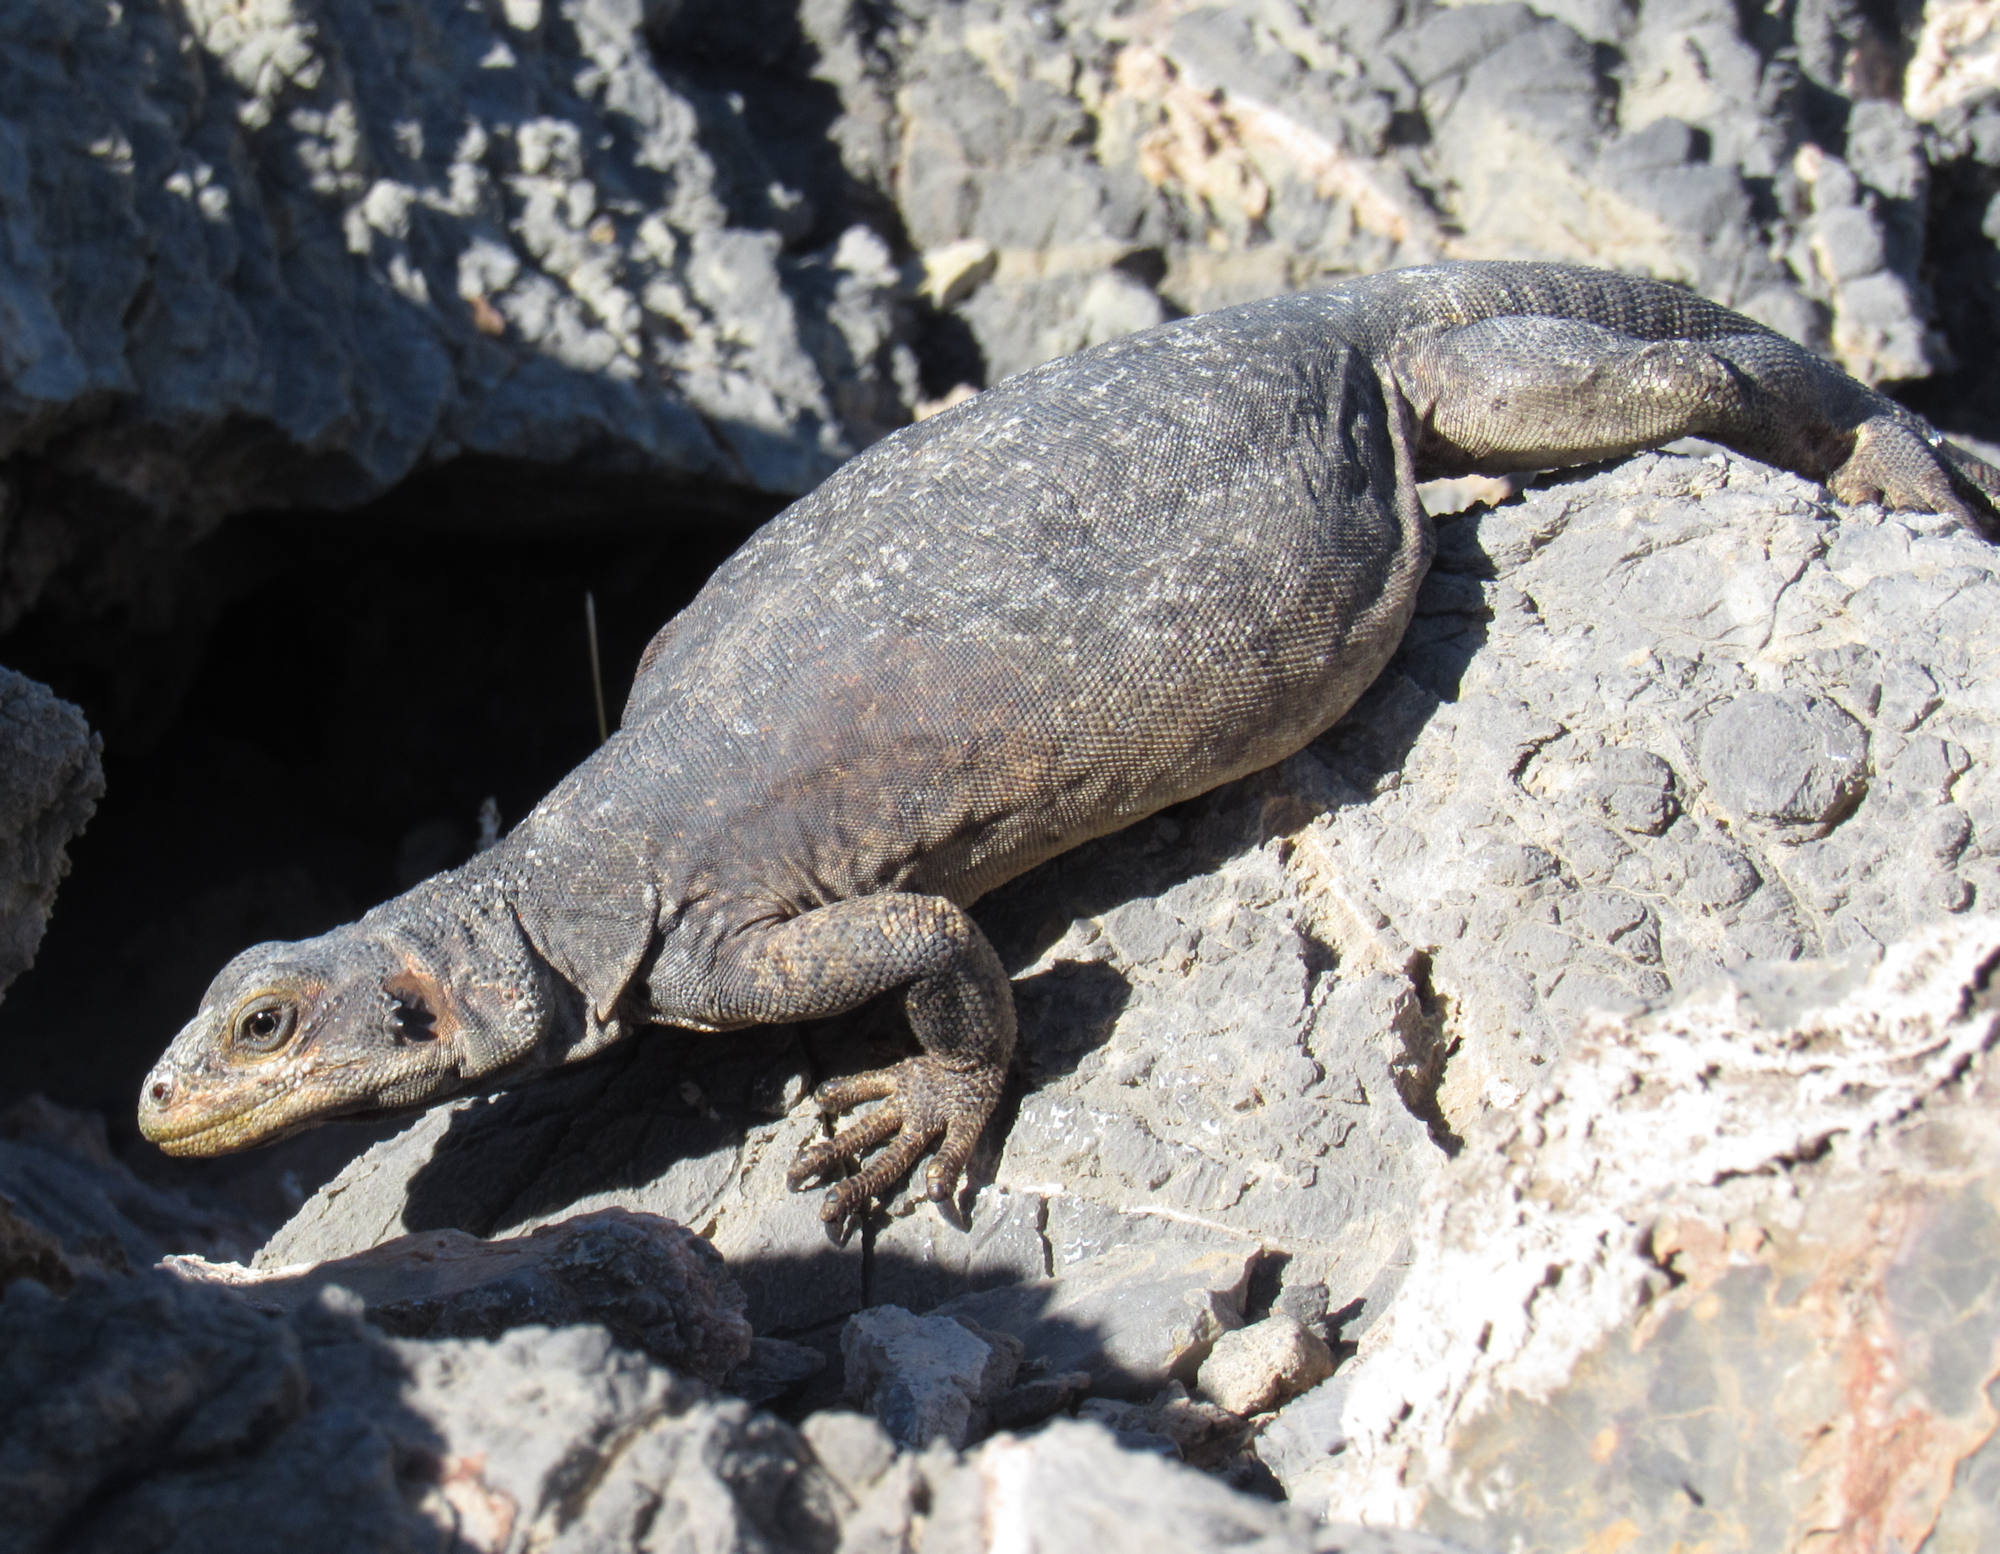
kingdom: Animalia
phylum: Chordata
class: Squamata
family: Iguanidae
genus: Sauromalus
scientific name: Sauromalus ater
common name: Northern chuckwalla
